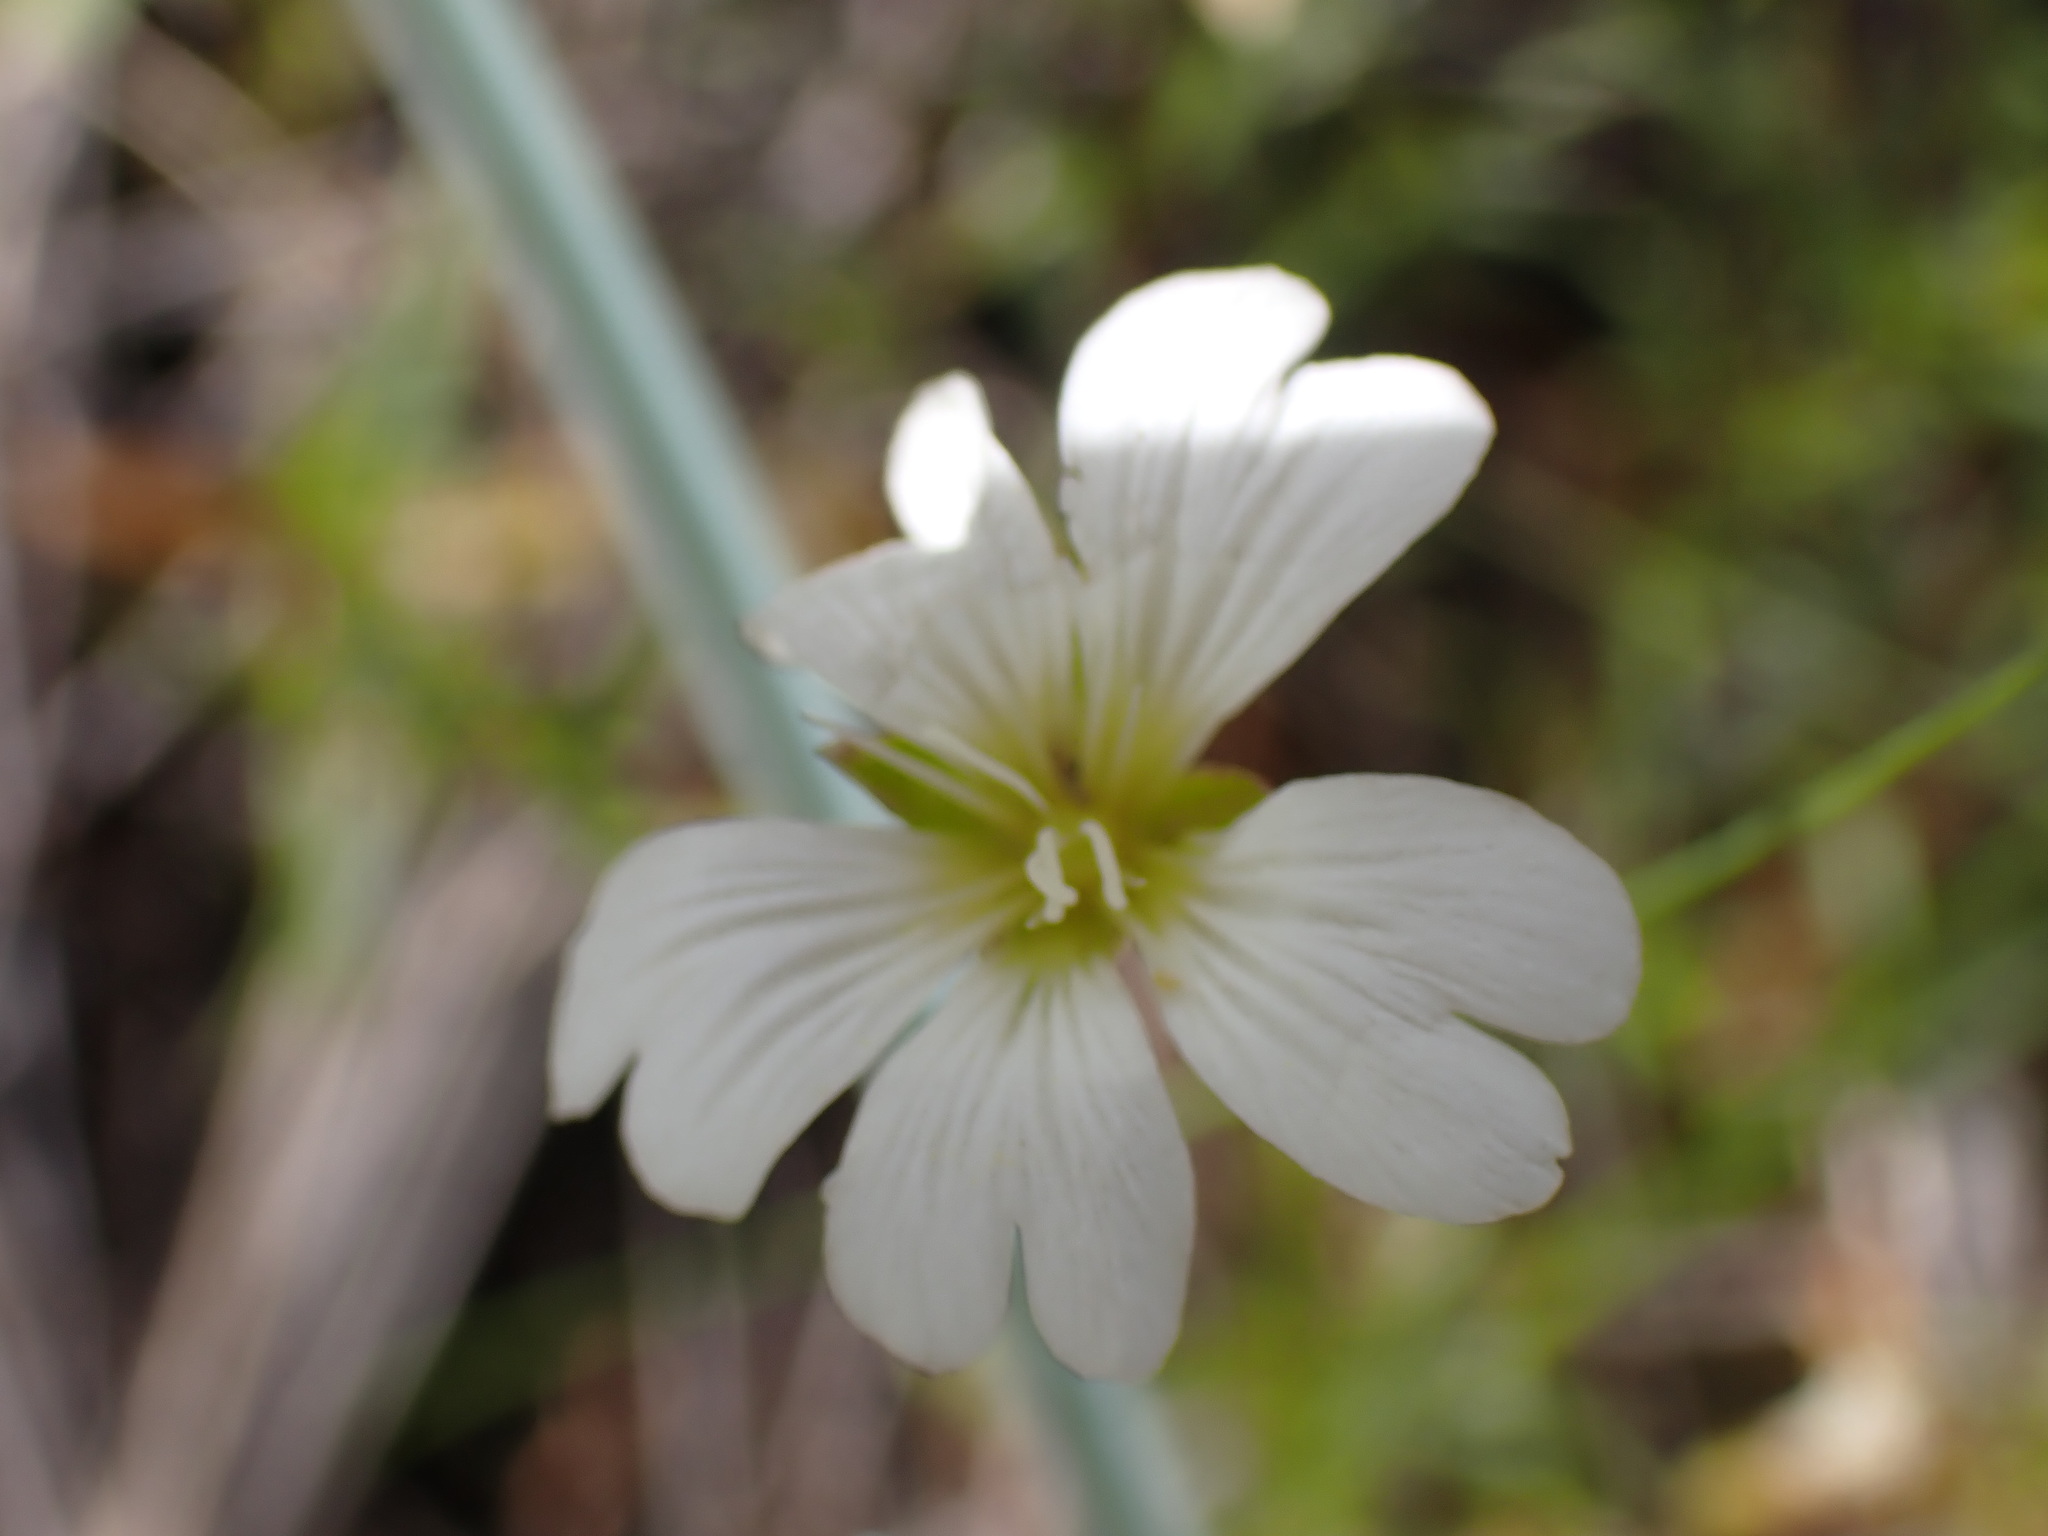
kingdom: Plantae
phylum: Tracheophyta
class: Magnoliopsida
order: Caryophyllales
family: Caryophyllaceae
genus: Cerastium
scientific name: Cerastium arvense
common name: Field mouse-ear
